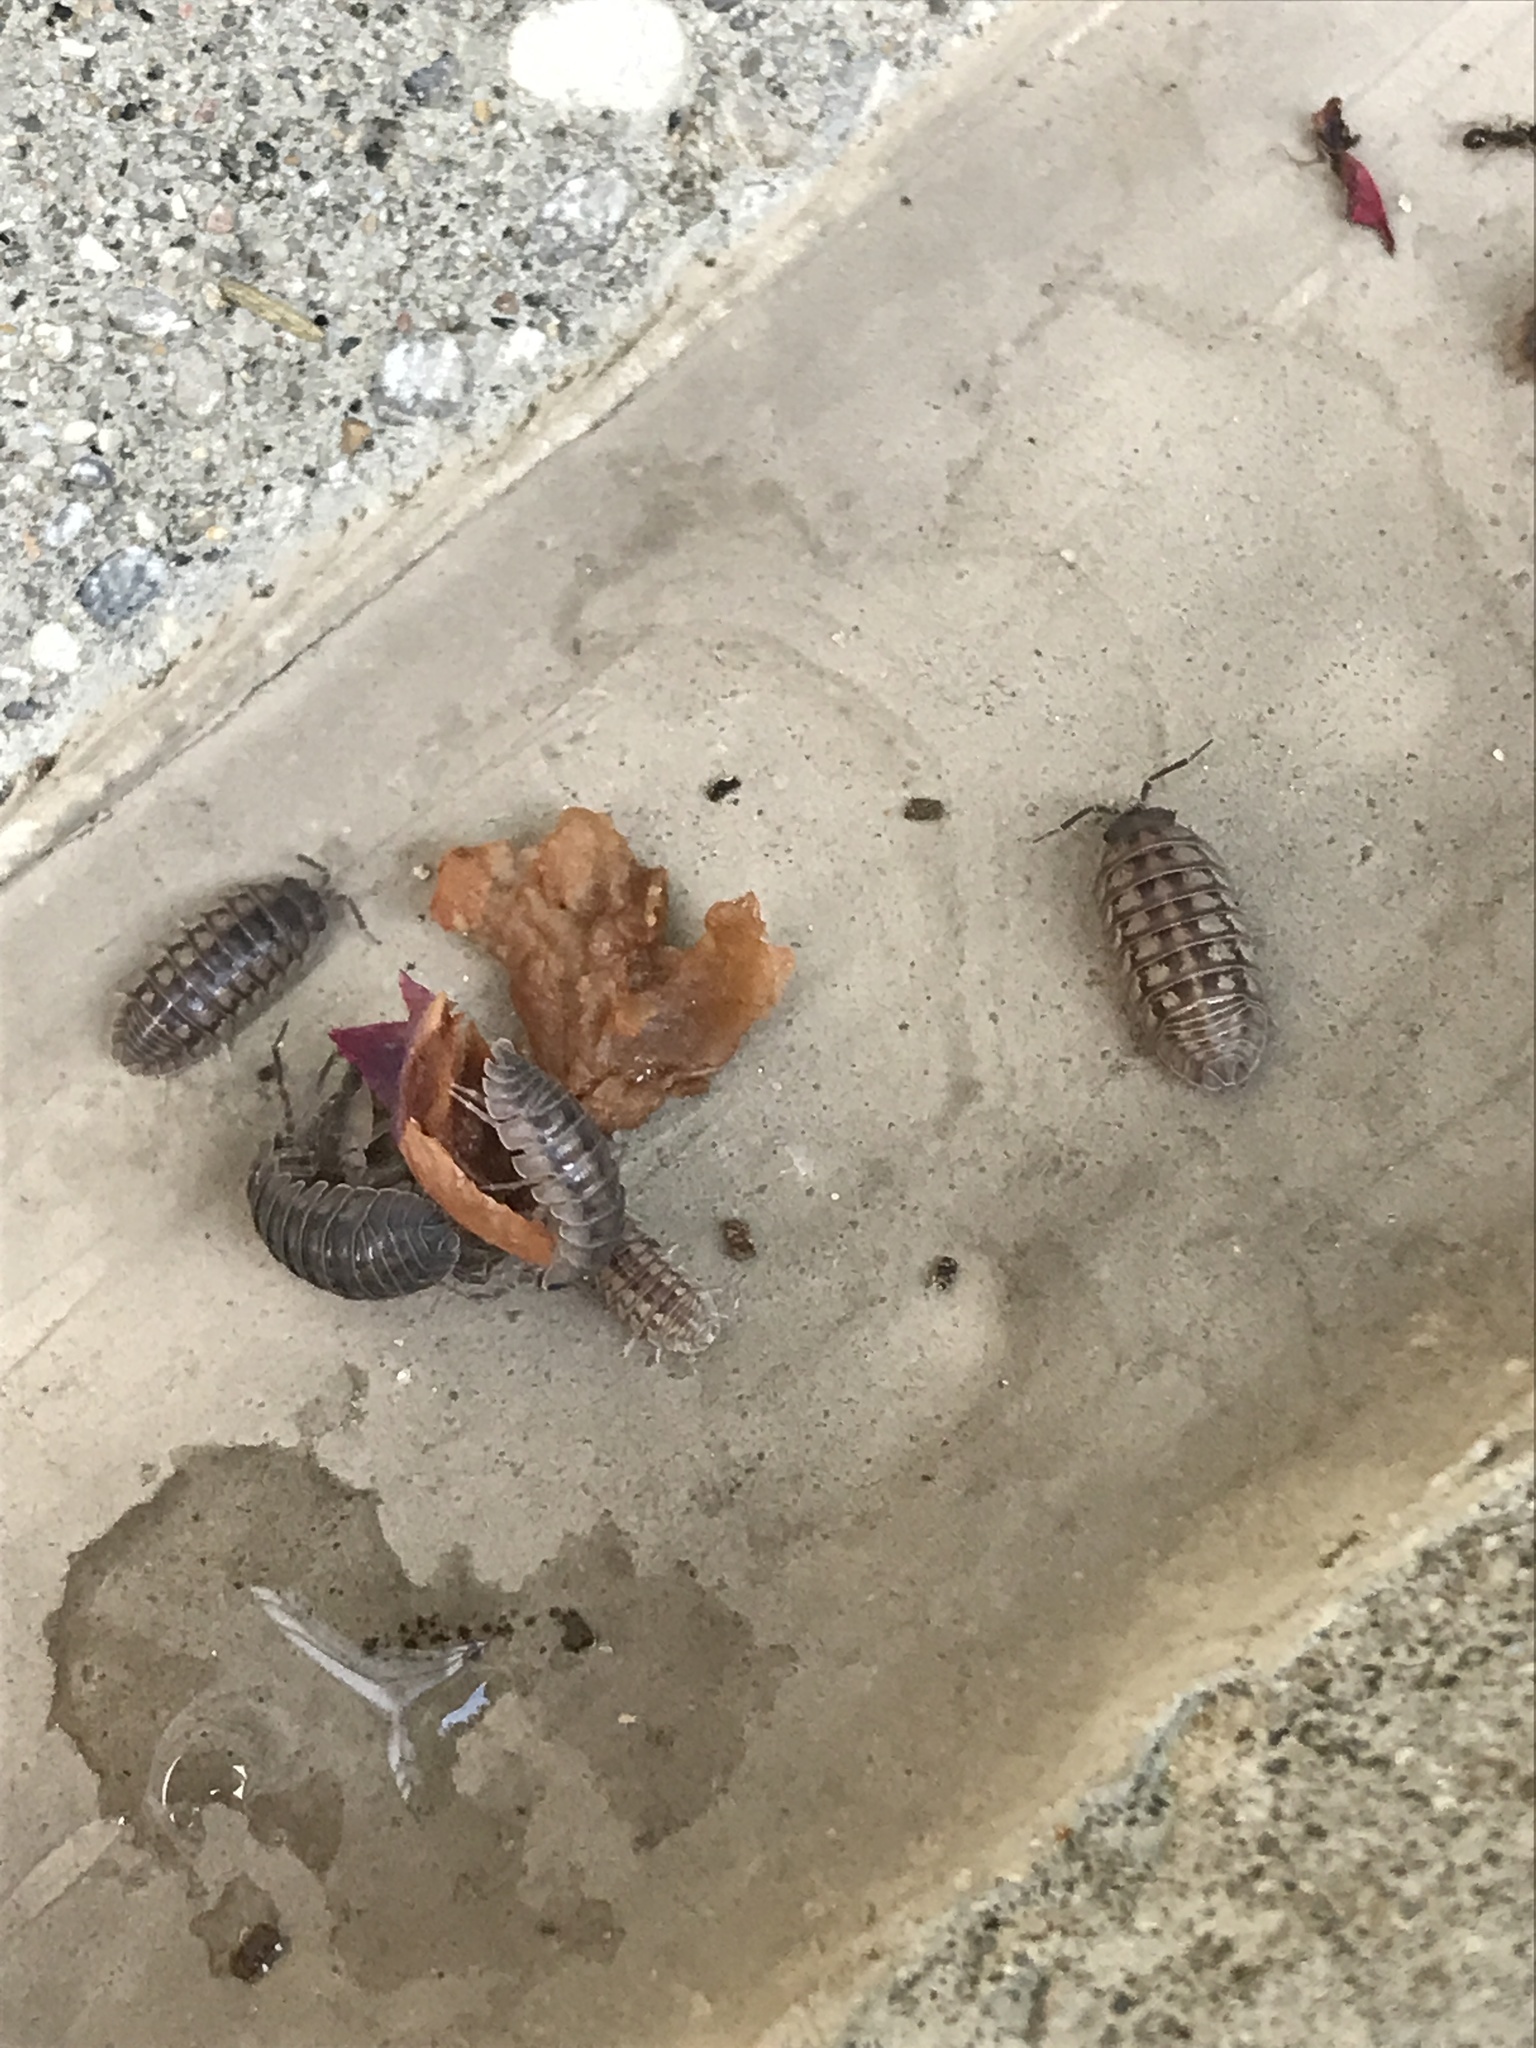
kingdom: Animalia
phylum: Arthropoda
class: Malacostraca
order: Isopoda
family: Armadillidiidae
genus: Armadillidium
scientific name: Armadillidium nasatum
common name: Isopod
